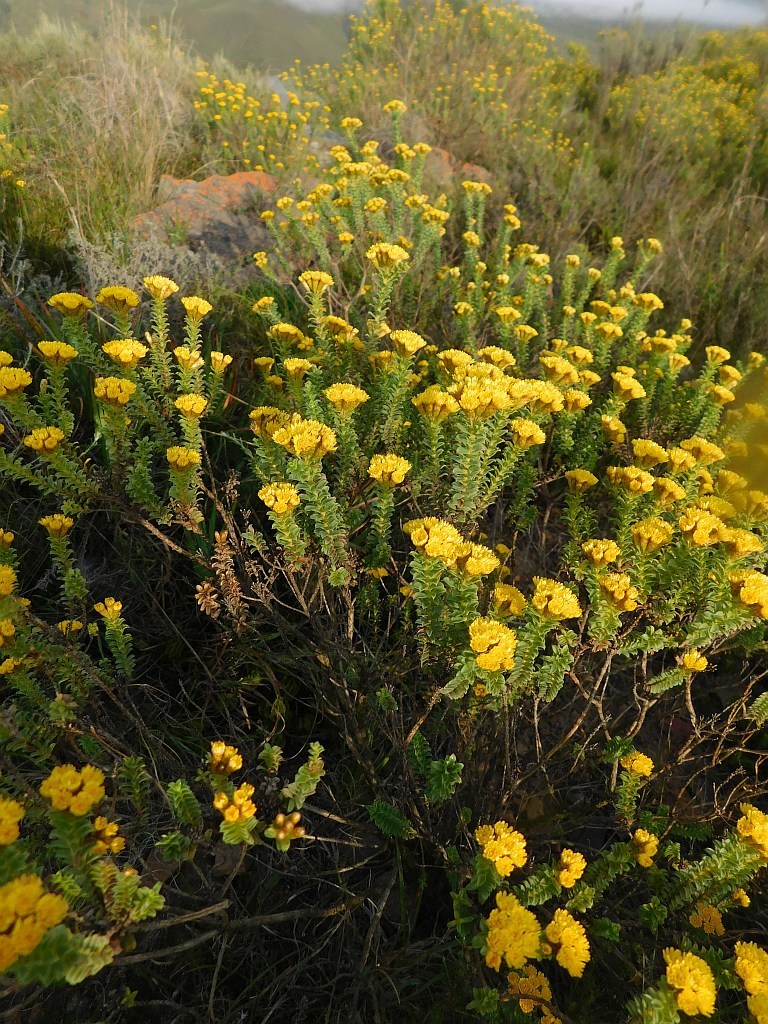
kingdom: Plantae
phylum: Tracheophyta
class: Magnoliopsida
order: Asterales
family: Asteraceae
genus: Oedera
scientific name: Oedera squarrosa
